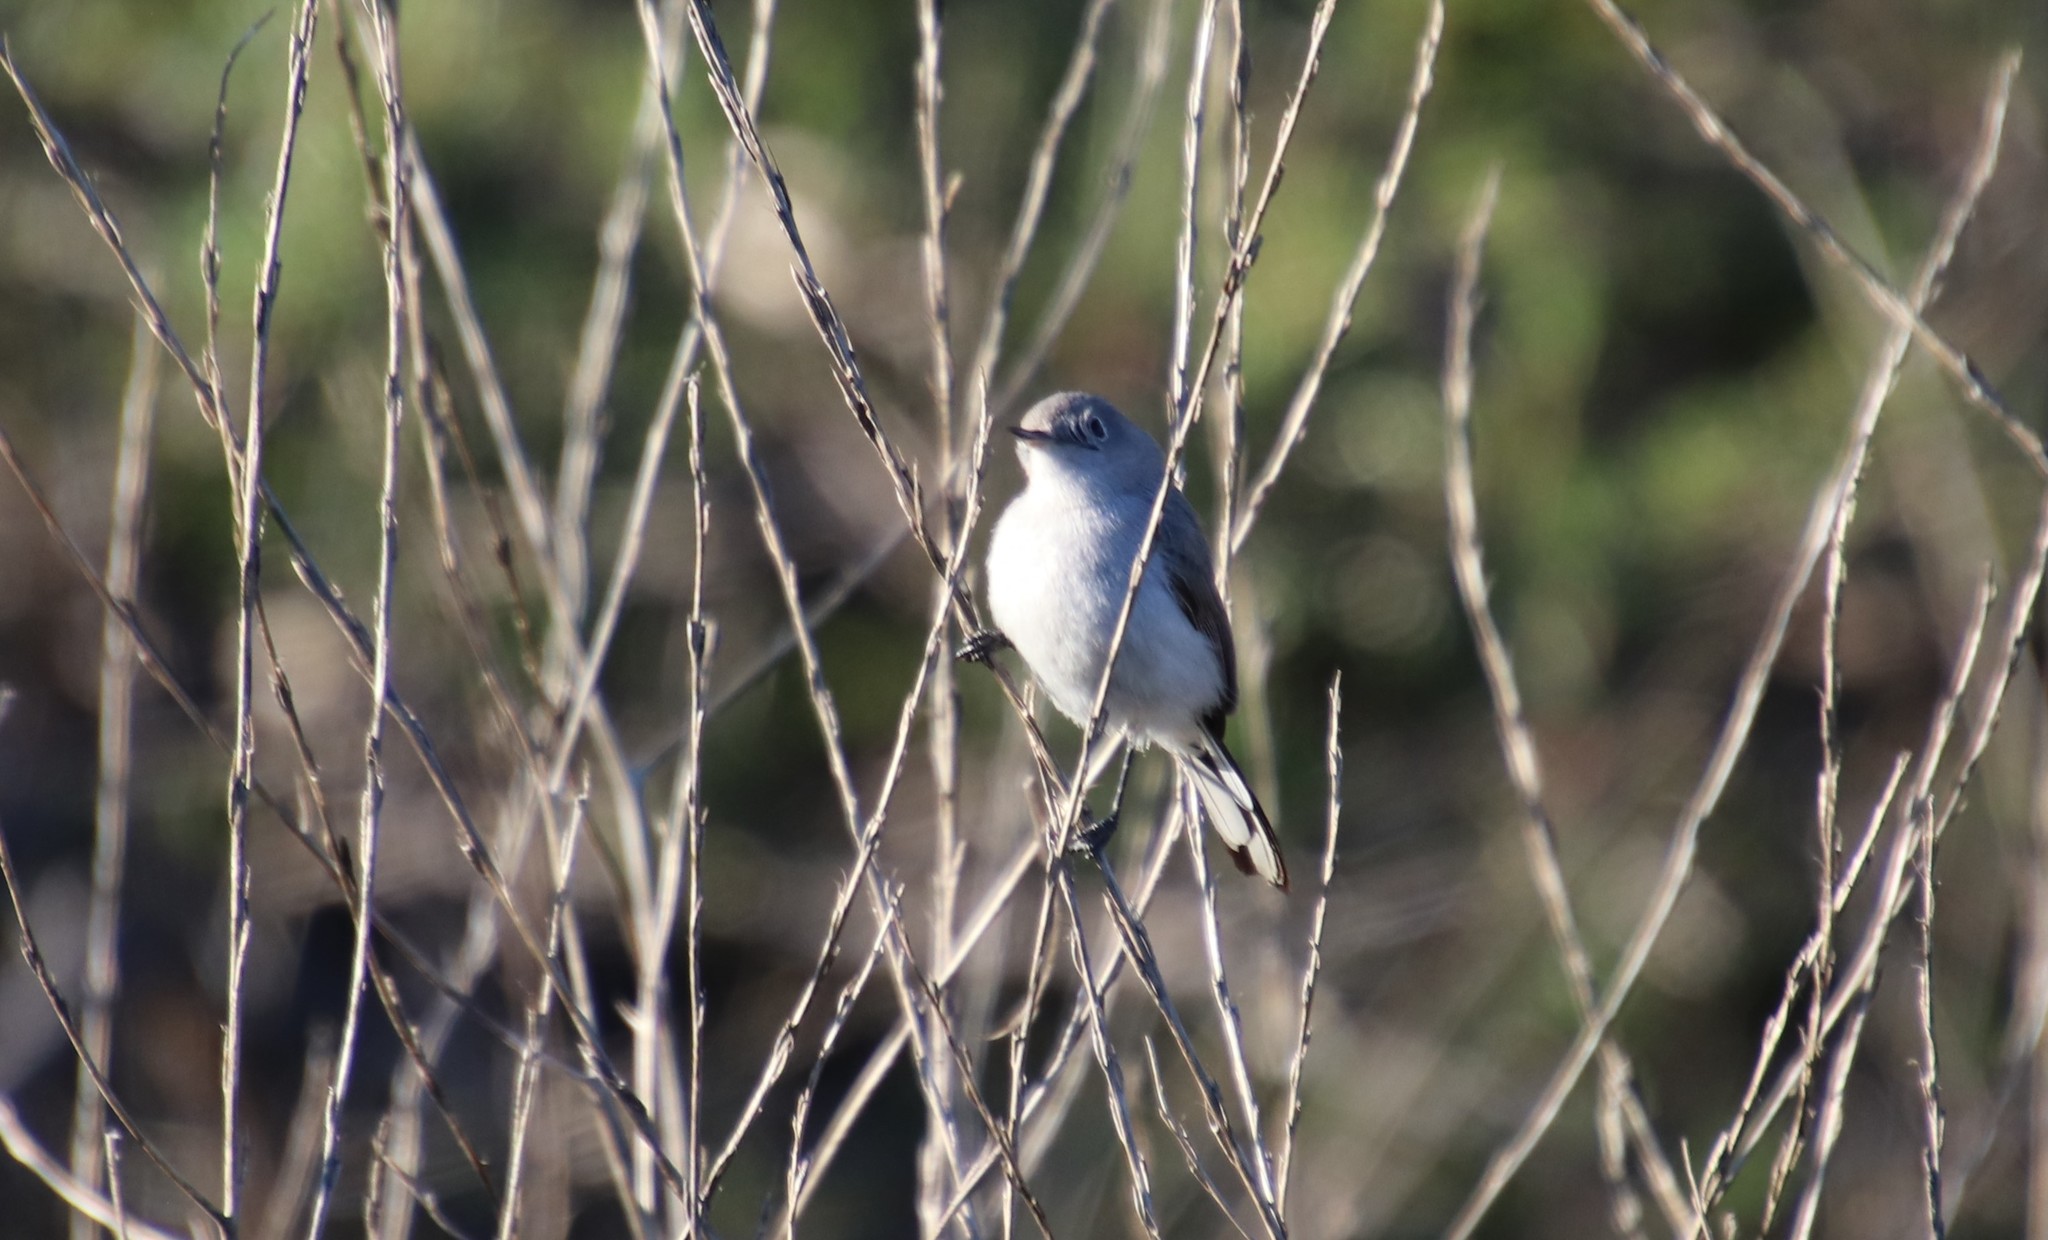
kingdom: Animalia
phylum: Chordata
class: Aves
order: Passeriformes
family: Polioptilidae
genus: Polioptila
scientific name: Polioptila caerulea
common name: Blue-gray gnatcatcher
